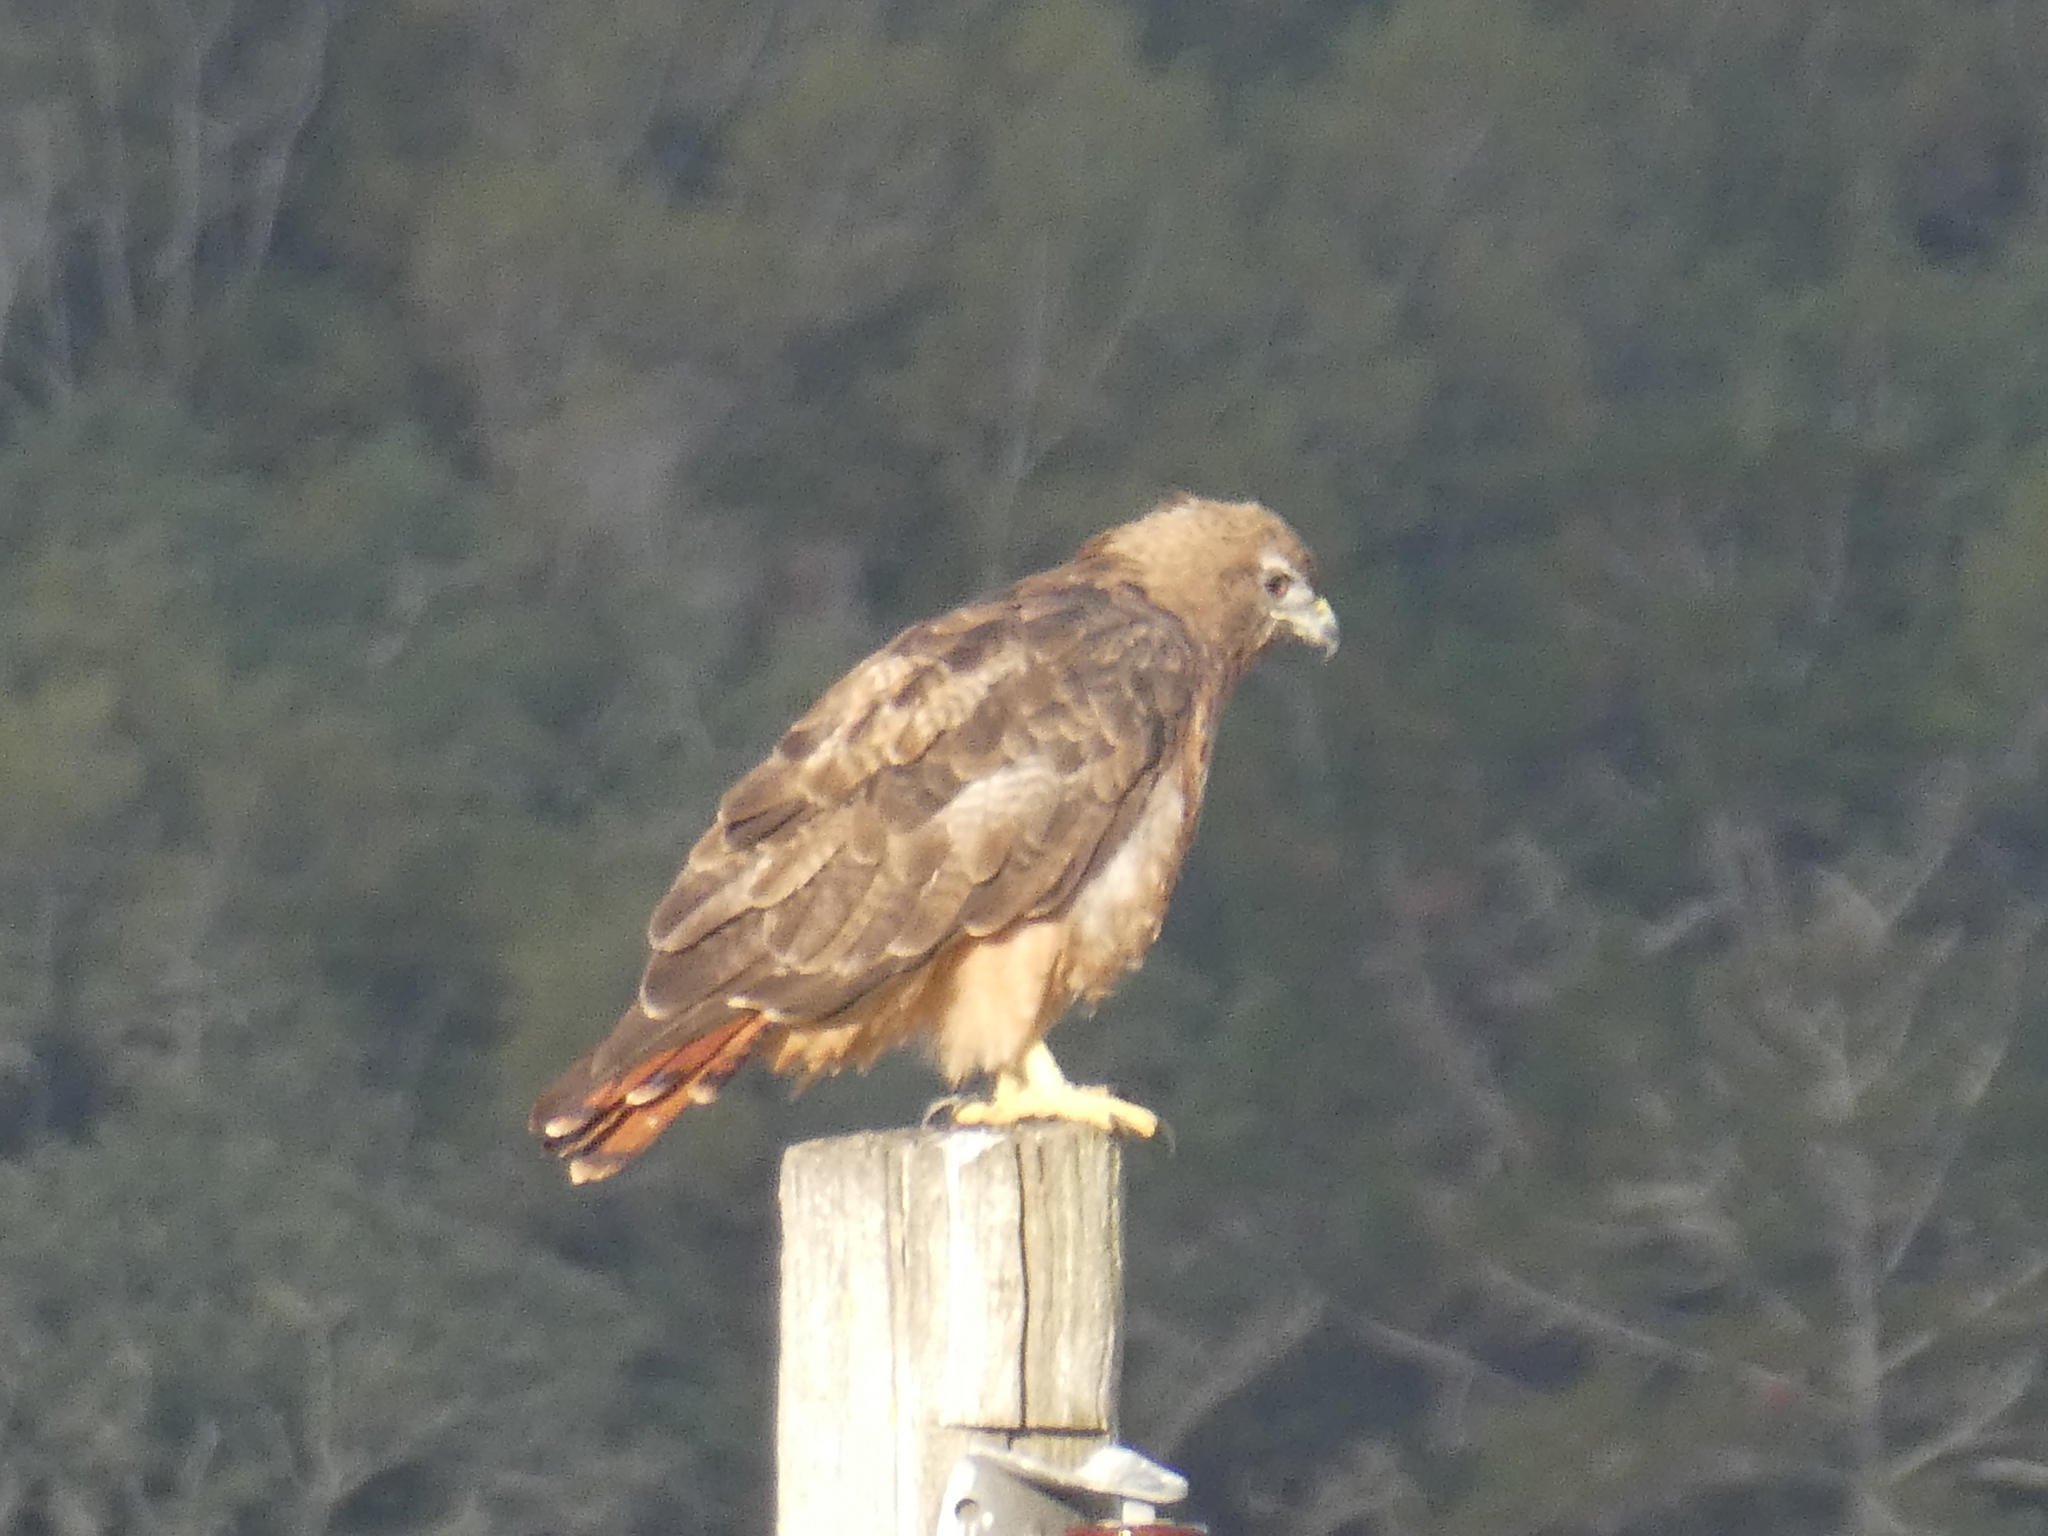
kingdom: Animalia
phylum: Chordata
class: Aves
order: Accipitriformes
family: Accipitridae
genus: Buteo
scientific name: Buteo jamaicensis
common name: Red-tailed hawk
